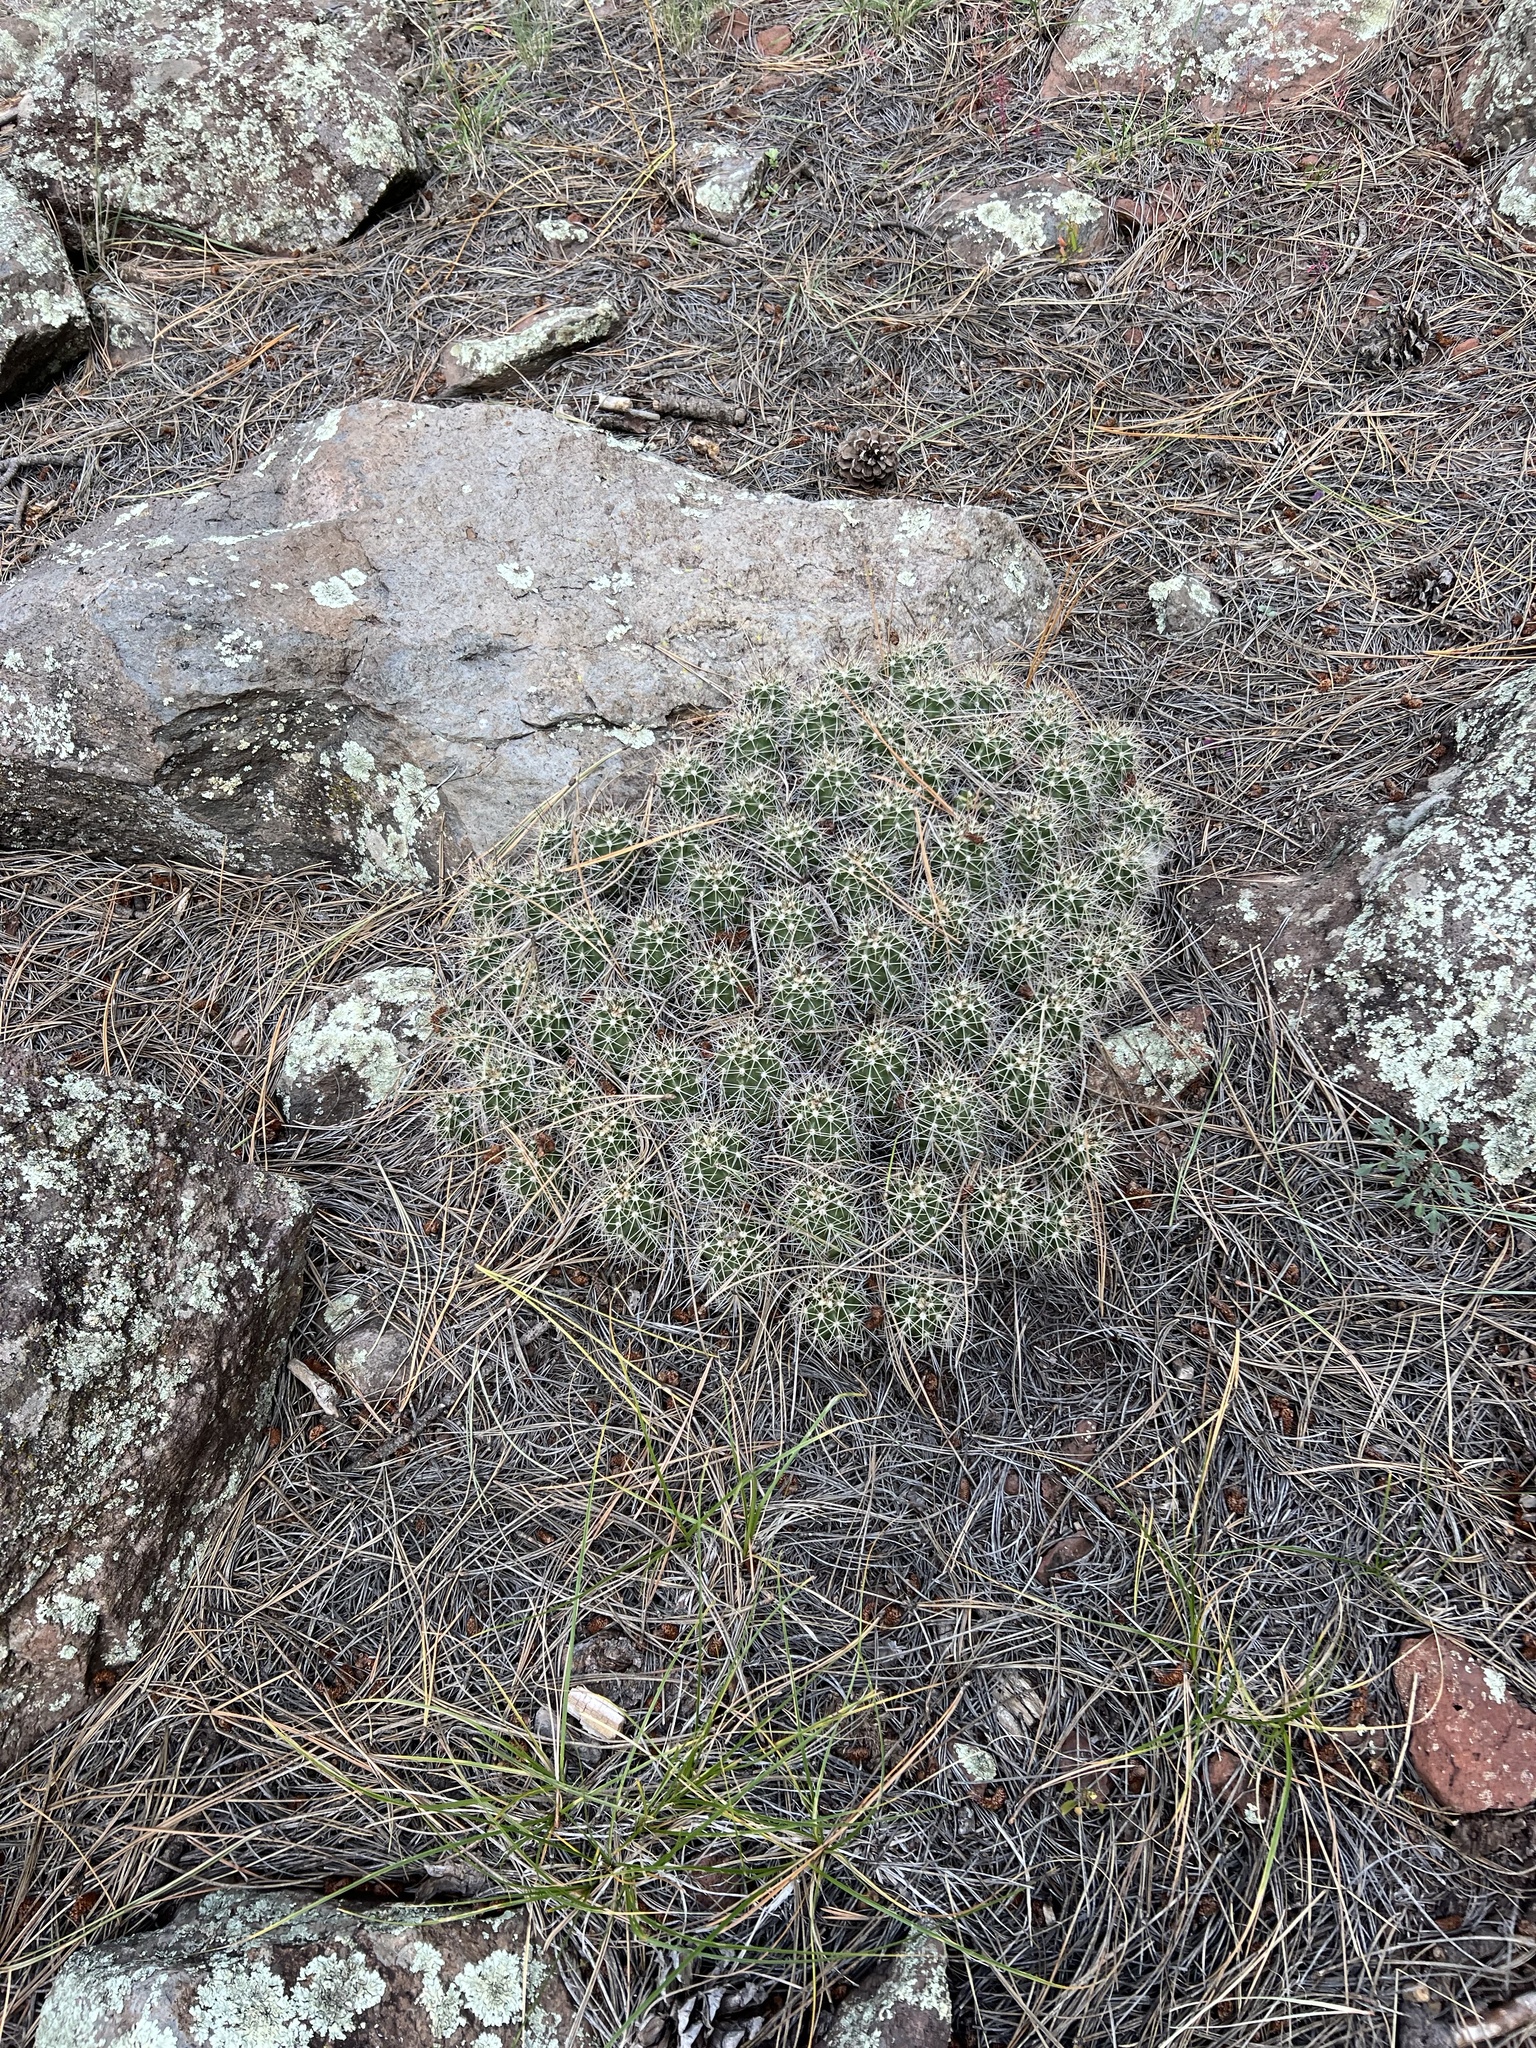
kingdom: Plantae
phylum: Tracheophyta
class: Magnoliopsida
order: Caryophyllales
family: Cactaceae
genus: Echinocereus
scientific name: Echinocereus bakeri
